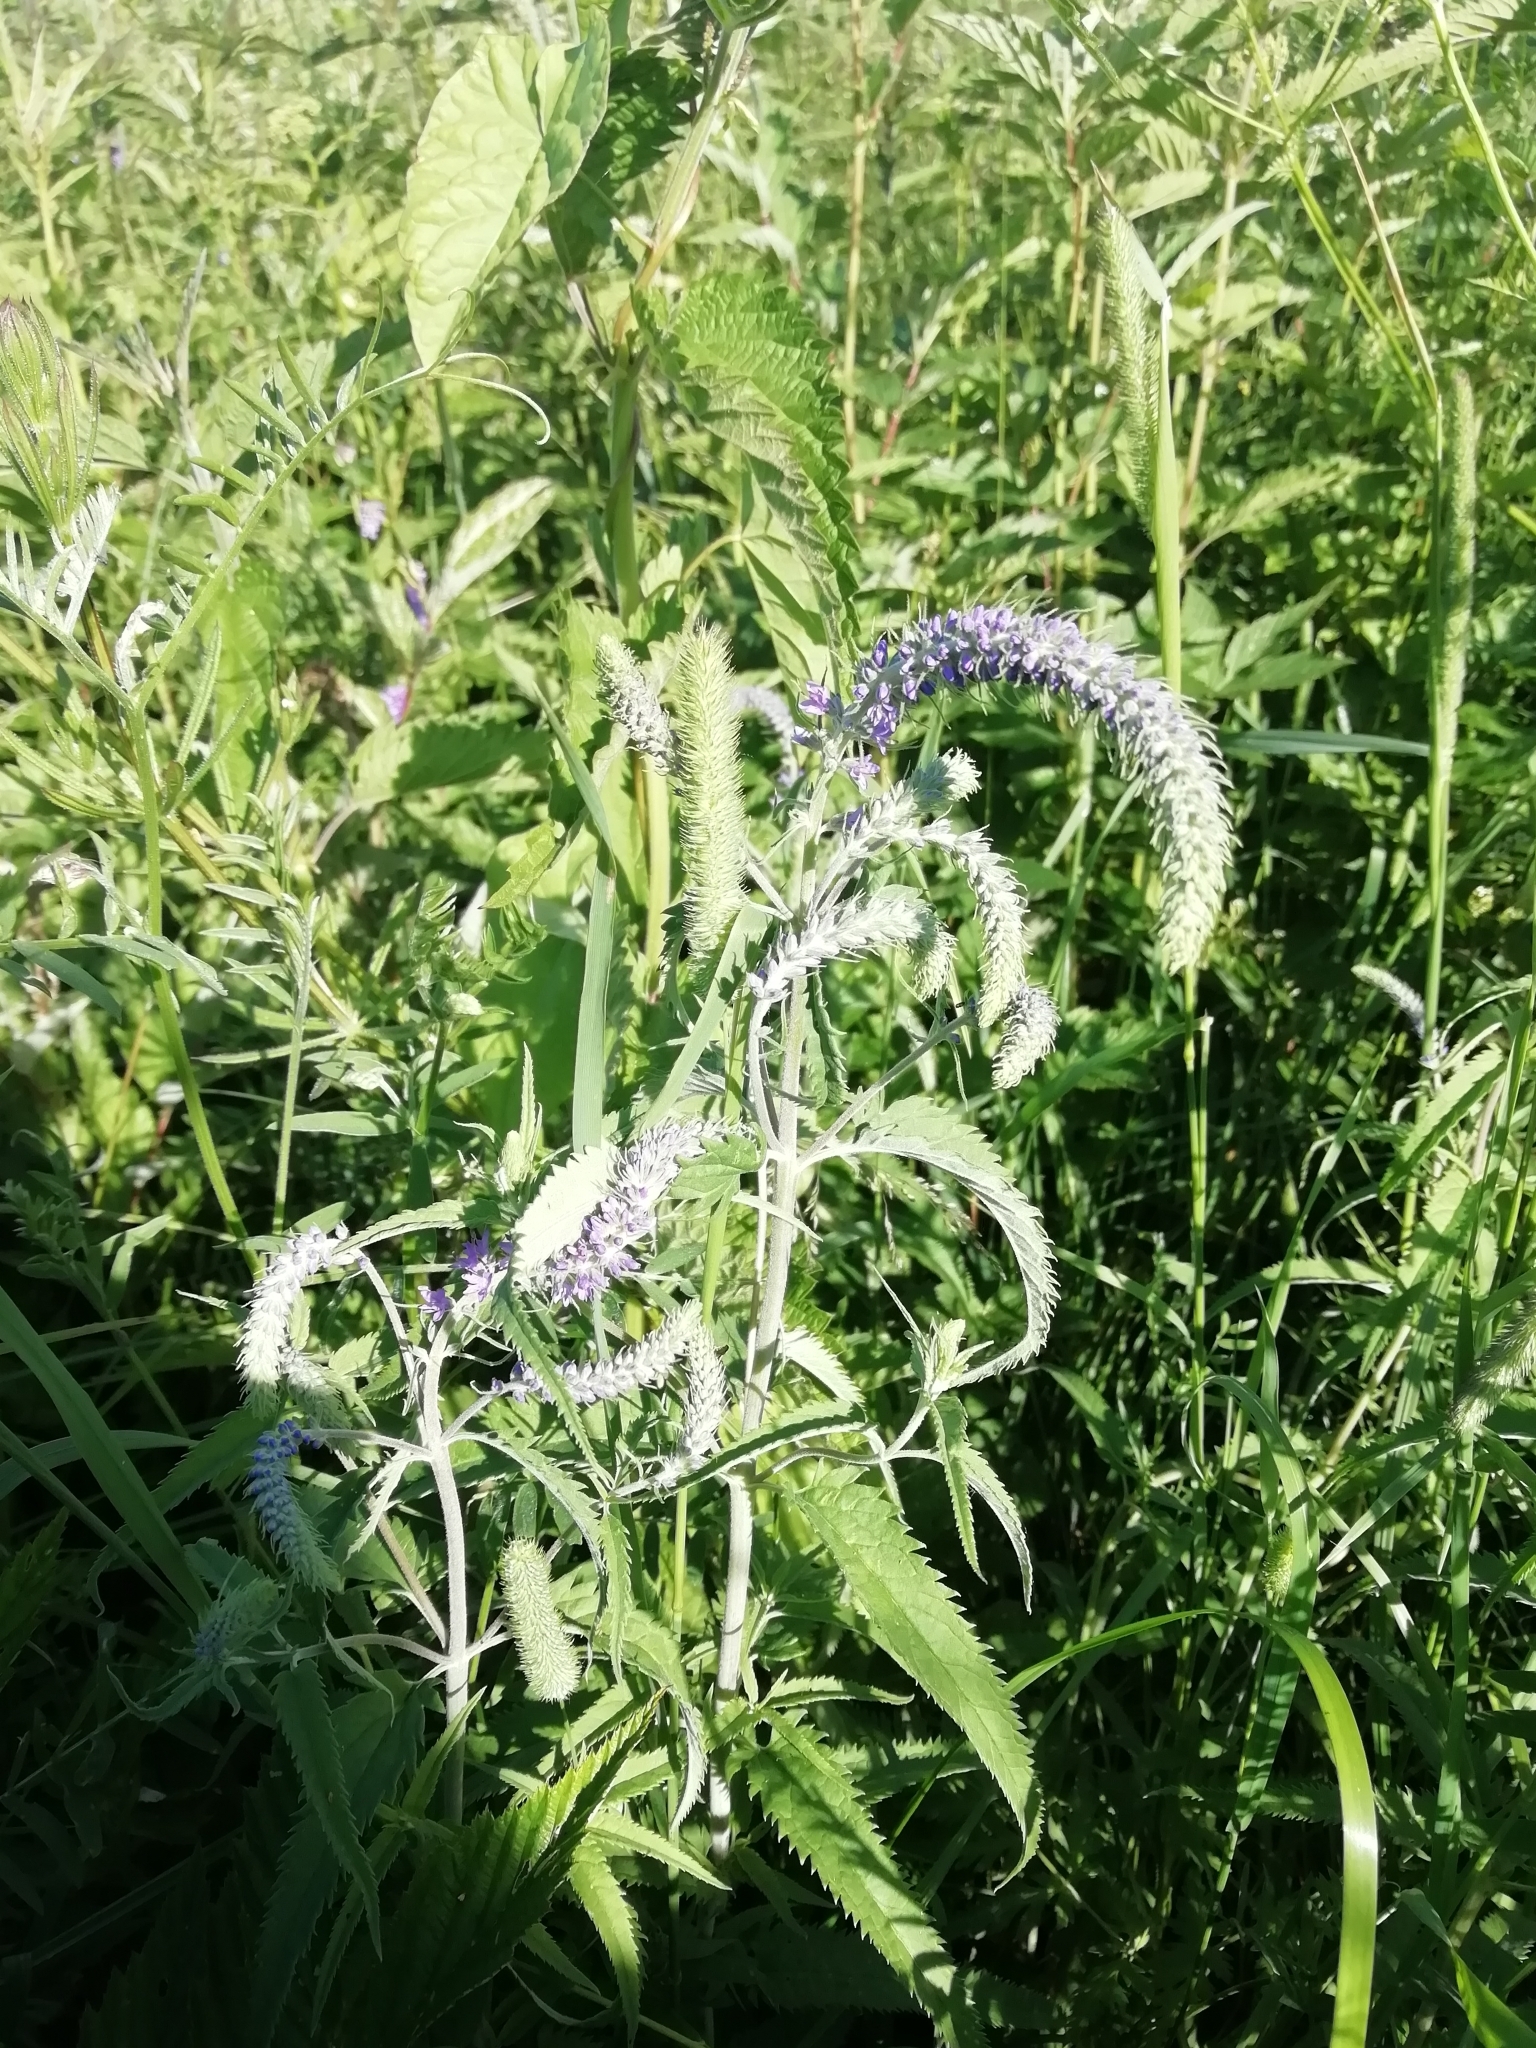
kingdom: Plantae
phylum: Tracheophyta
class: Magnoliopsida
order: Lamiales
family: Plantaginaceae
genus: Veronica
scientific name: Veronica longifolia
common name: Garden speedwell
